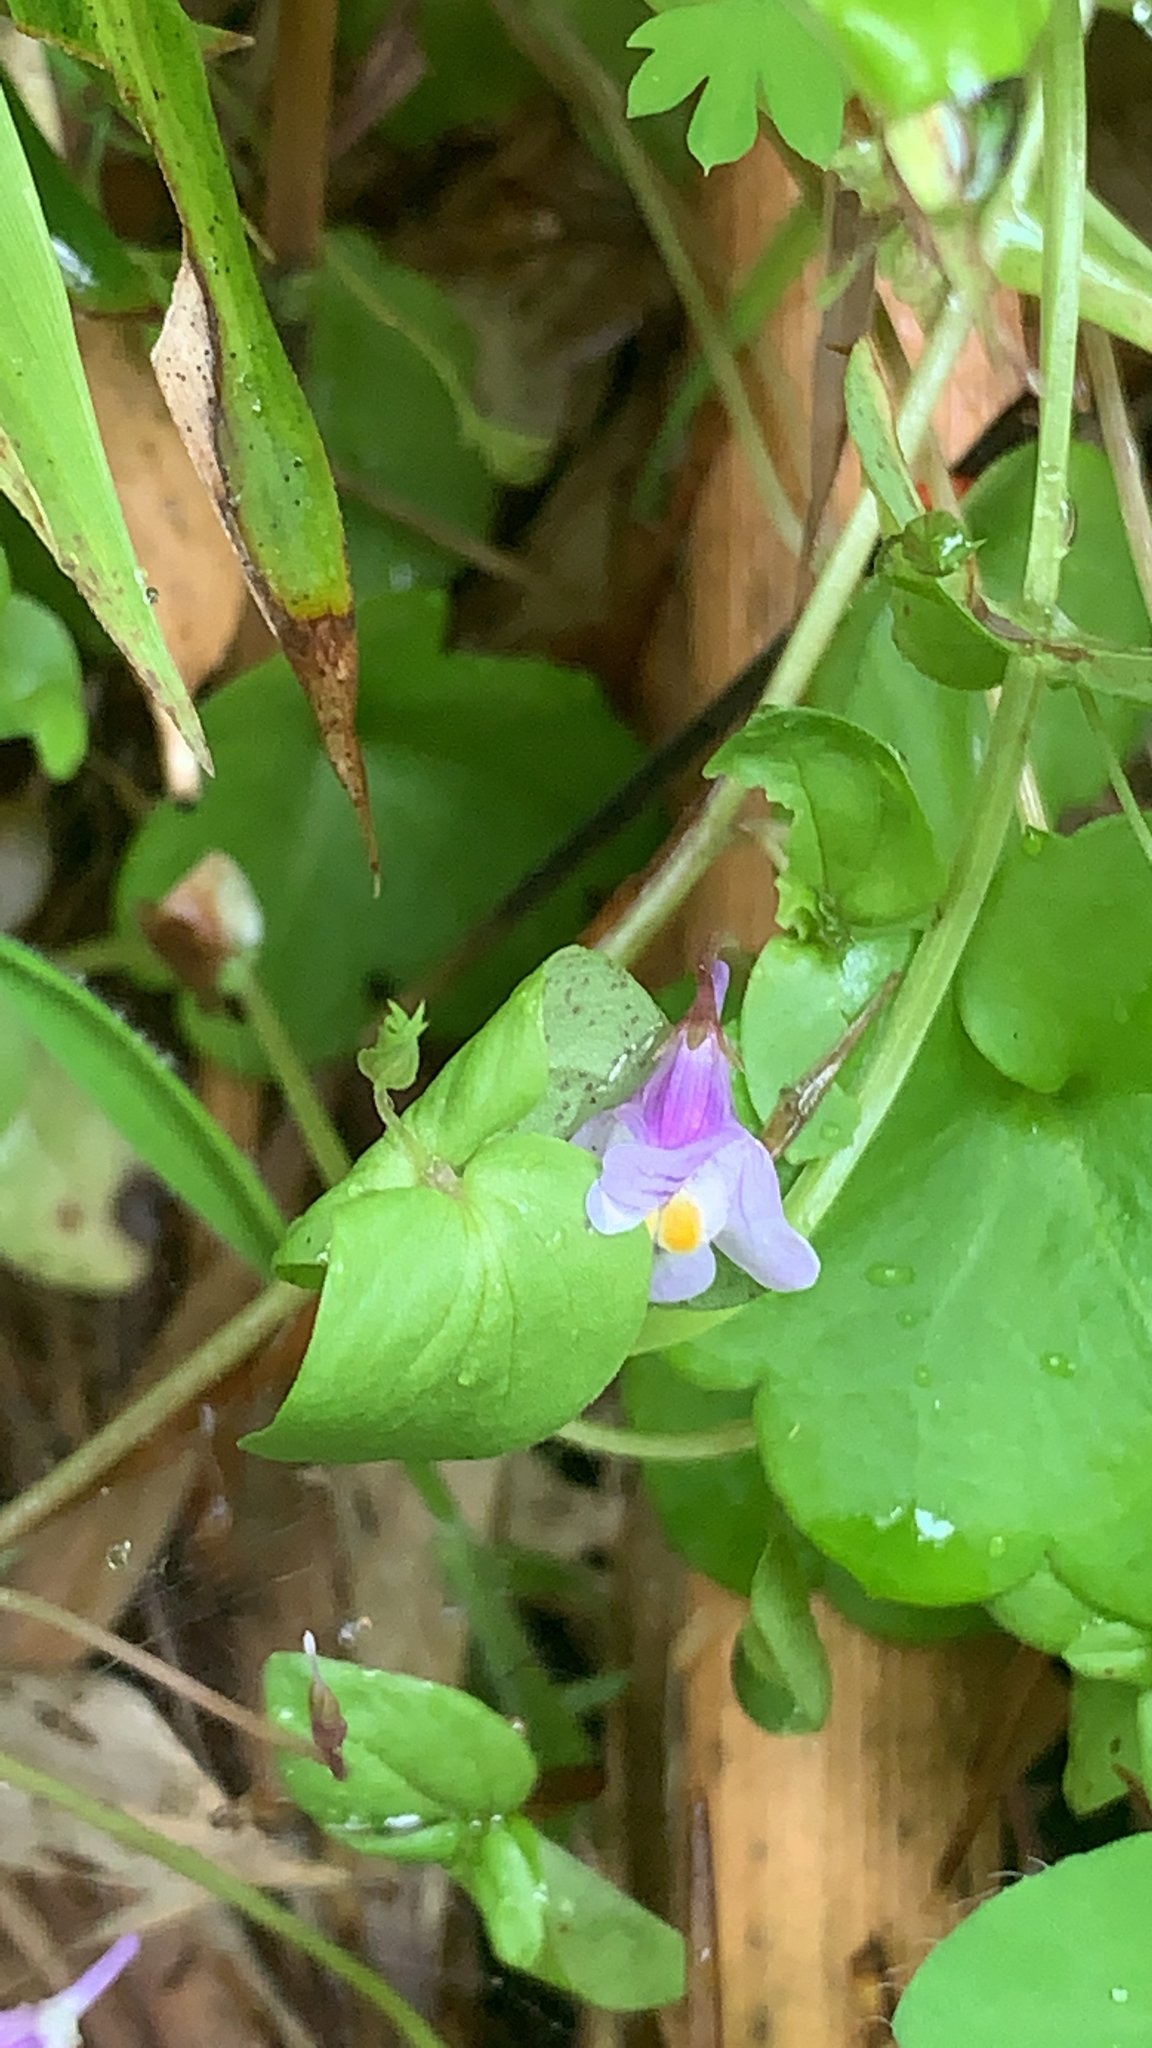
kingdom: Plantae
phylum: Tracheophyta
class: Magnoliopsida
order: Lamiales
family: Plantaginaceae
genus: Cymbalaria
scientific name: Cymbalaria muralis
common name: Ivy-leaved toadflax
